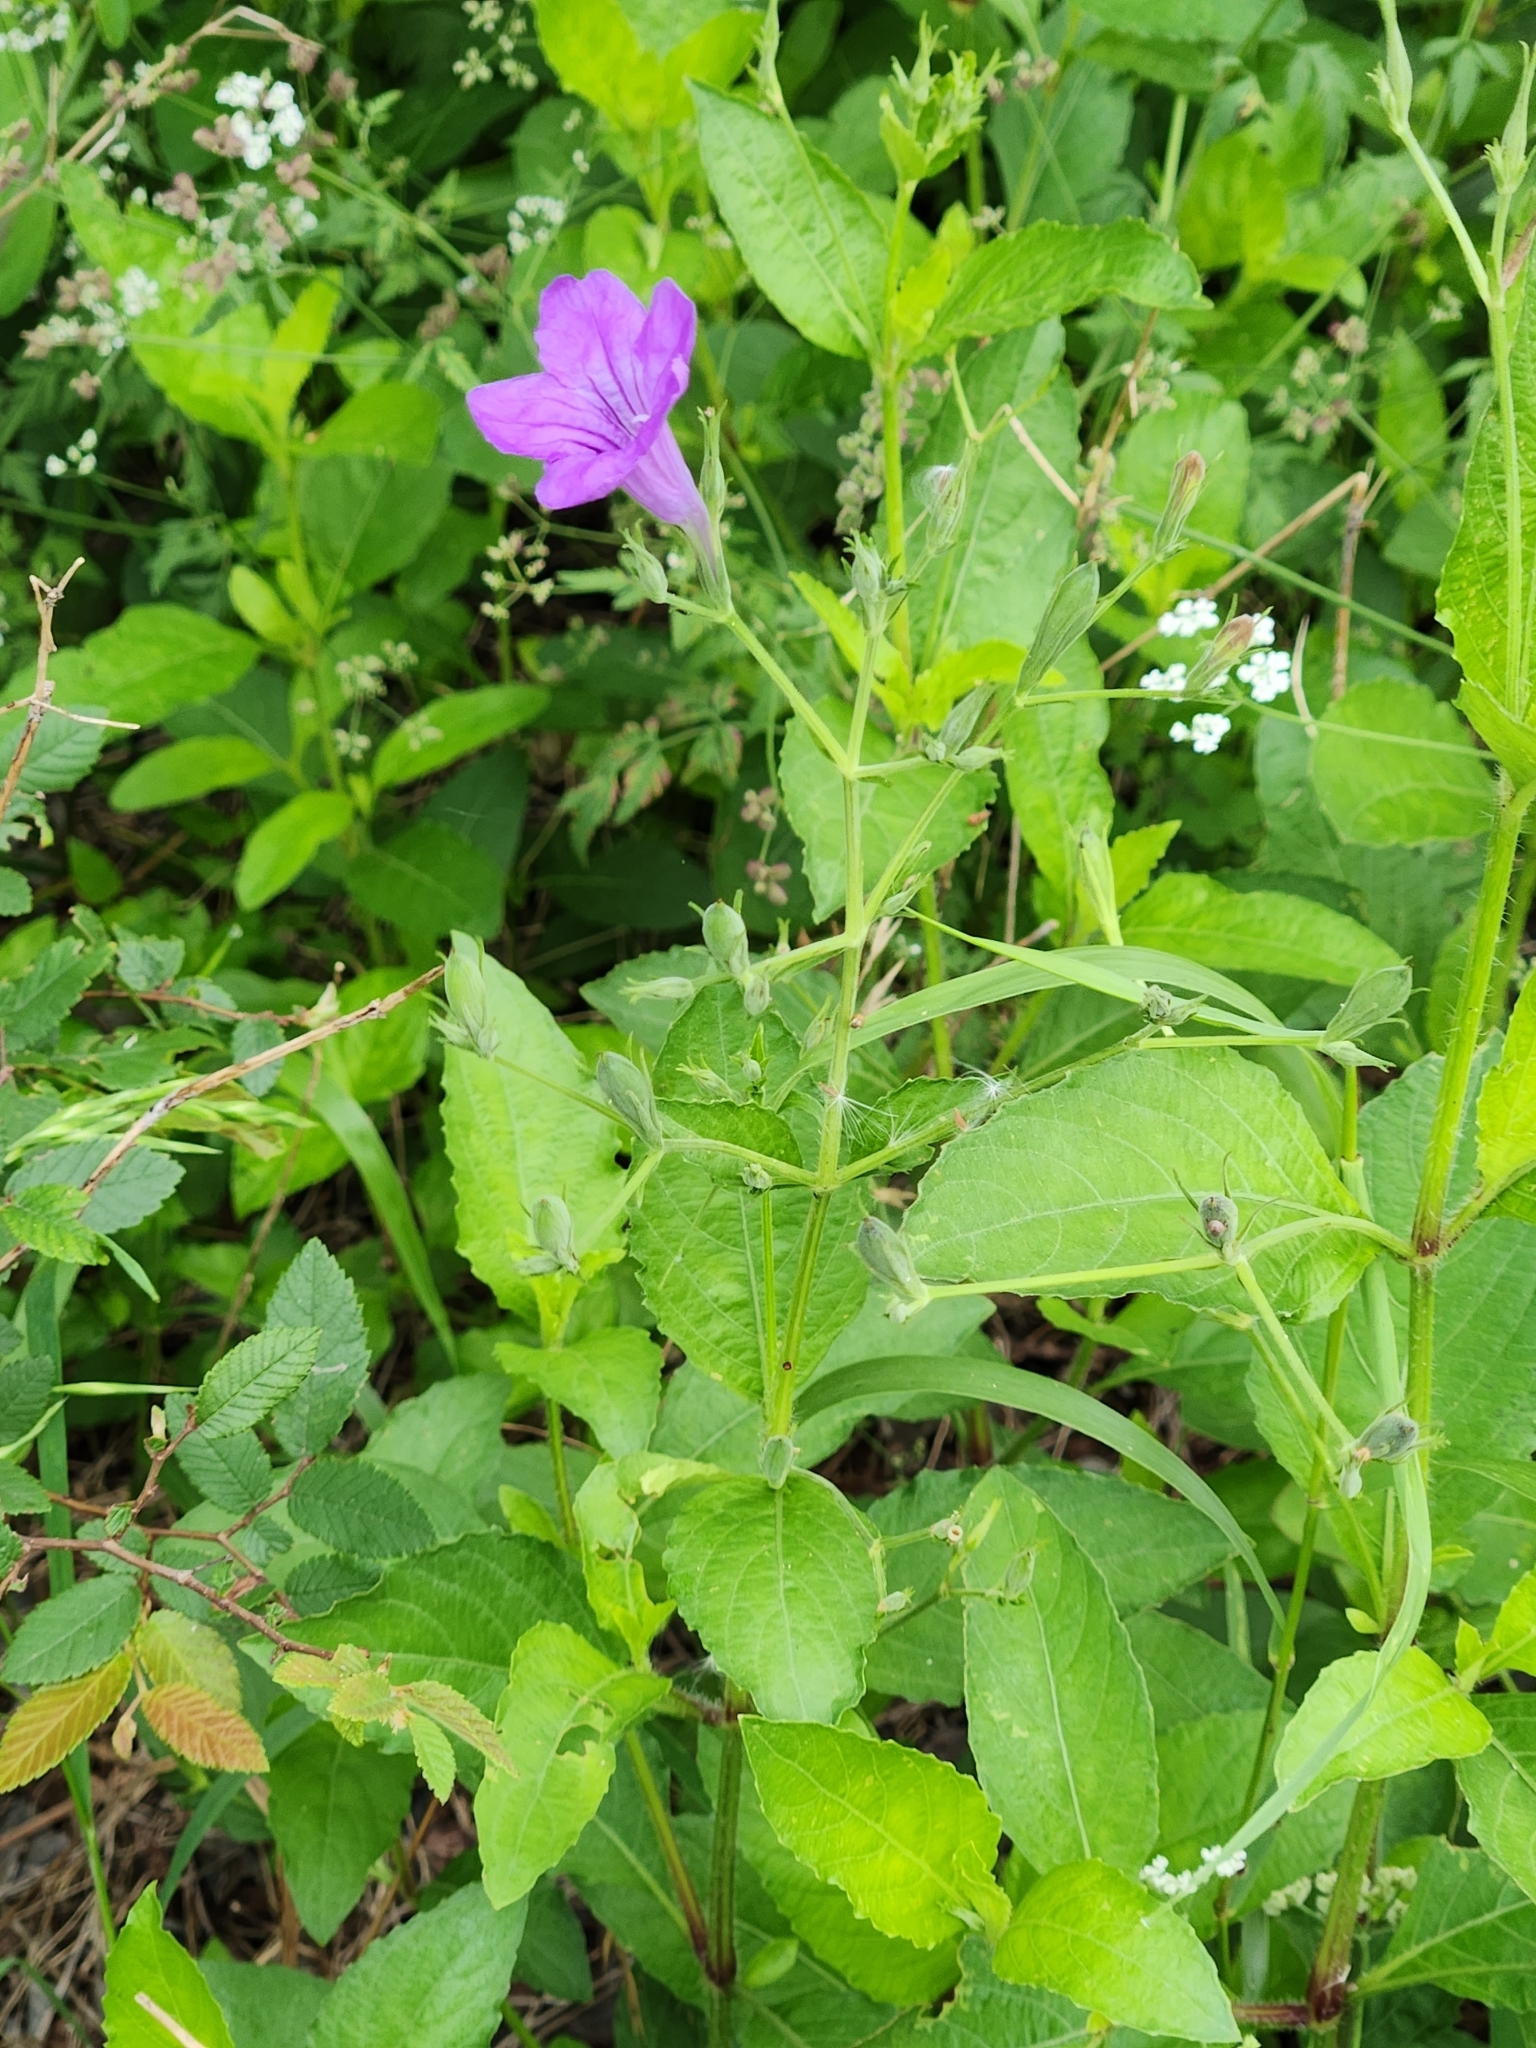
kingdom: Plantae
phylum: Tracheophyta
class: Magnoliopsida
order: Lamiales
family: Acanthaceae
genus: Ruellia
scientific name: Ruellia ciliatiflora
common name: Hairyflower wild petunia
